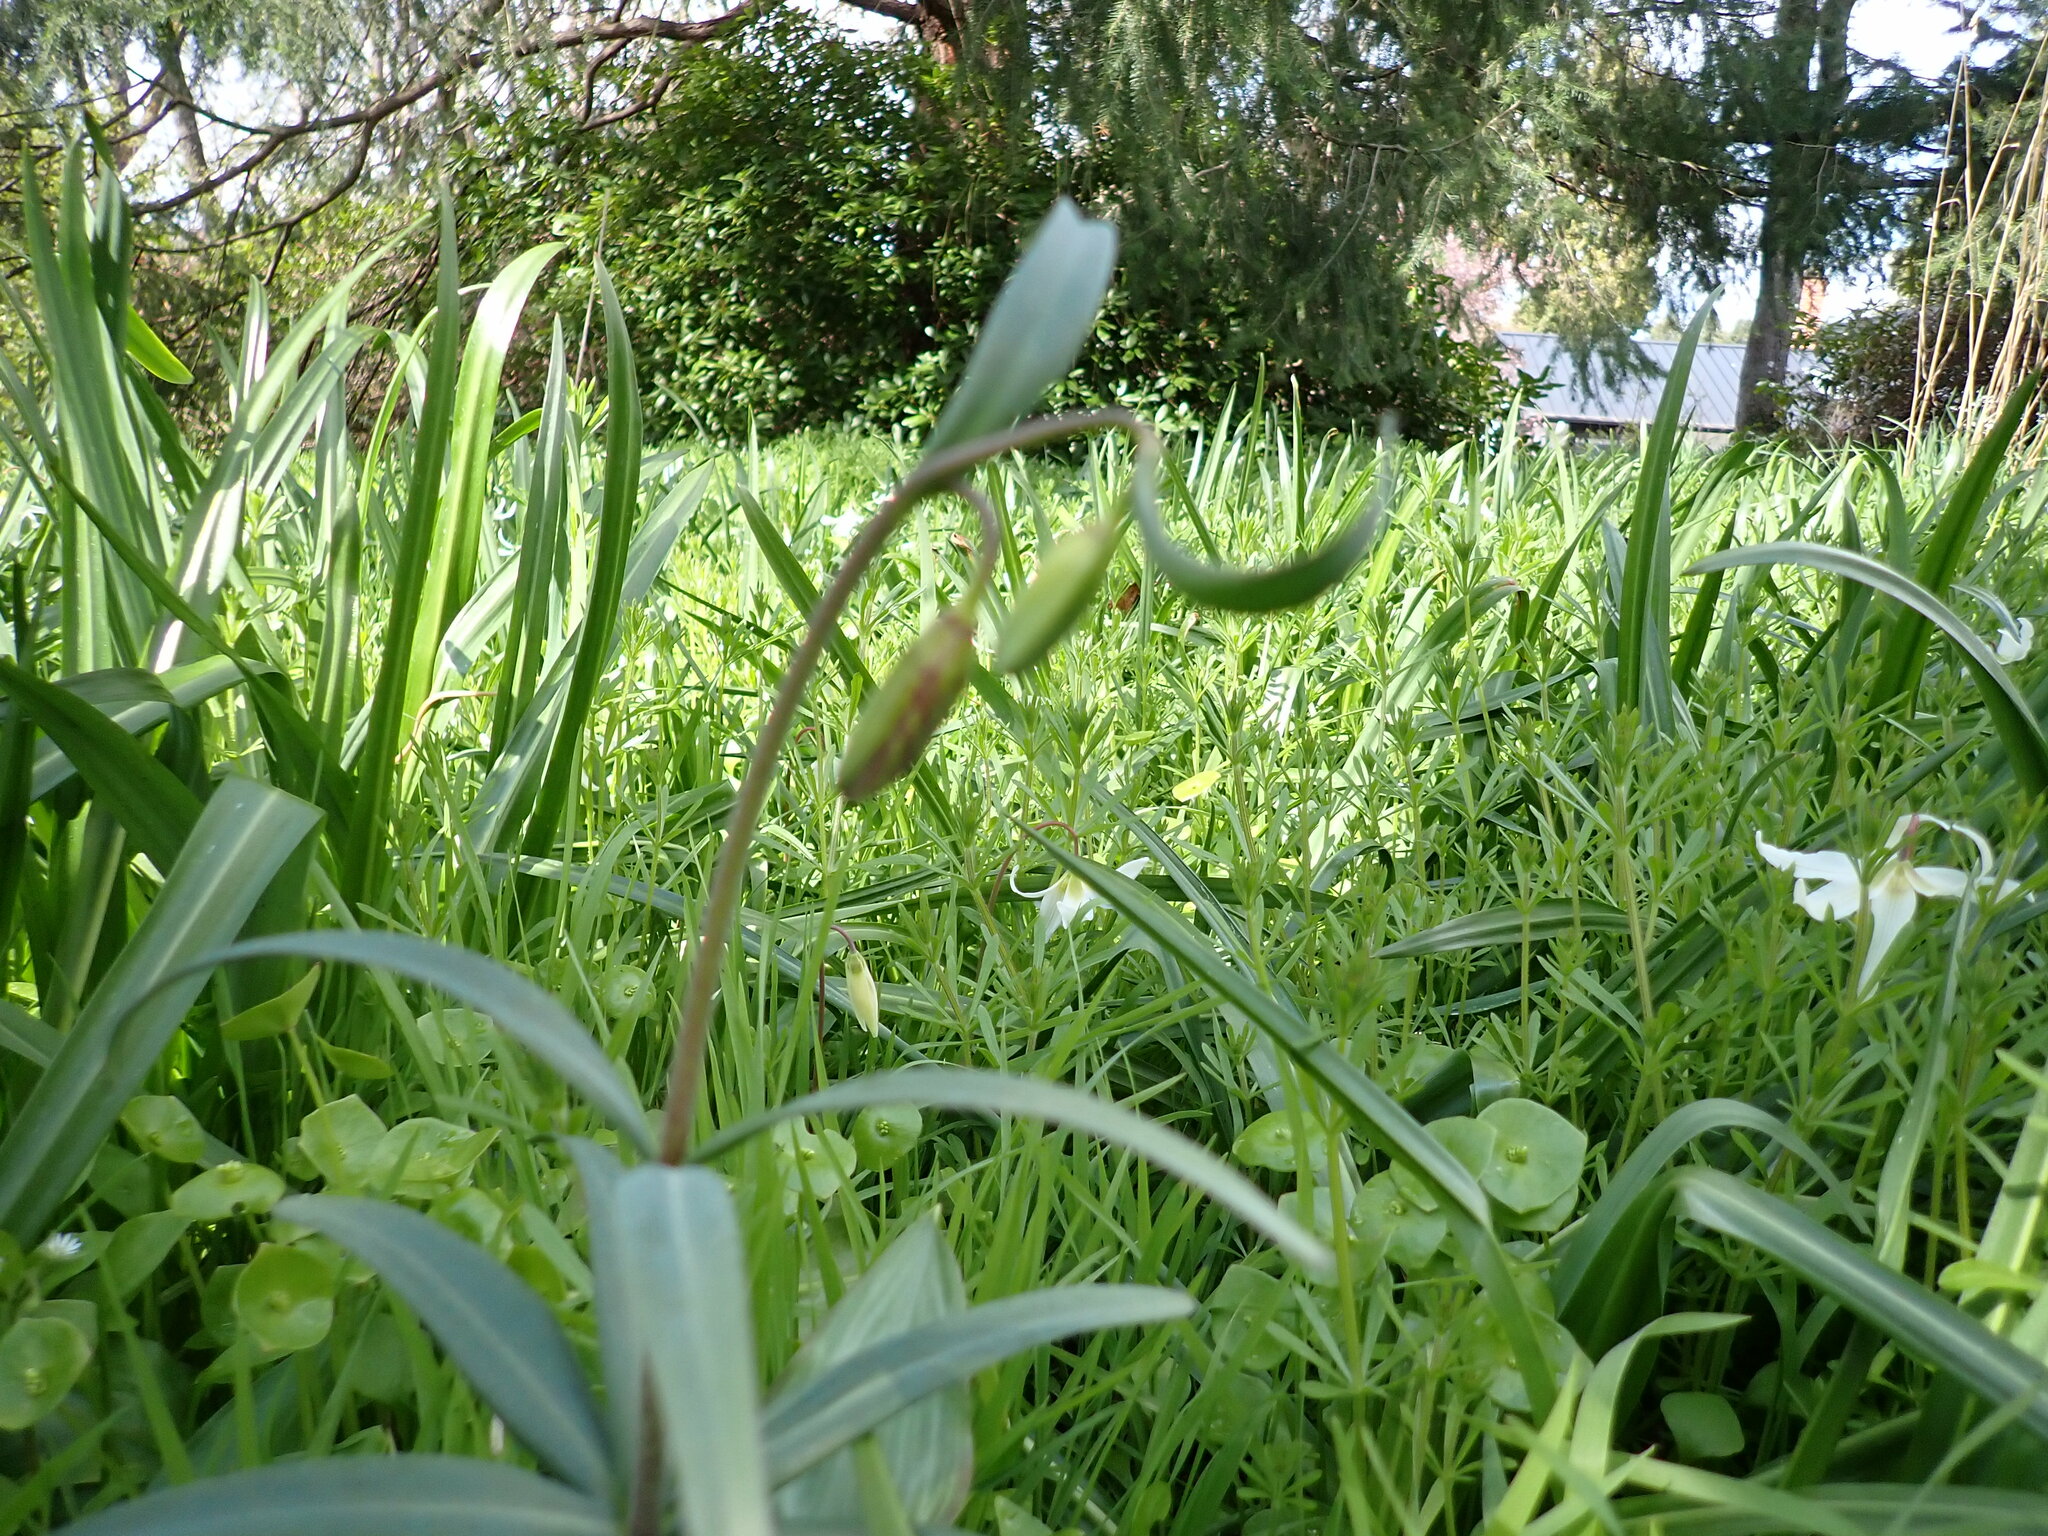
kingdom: Plantae
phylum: Tracheophyta
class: Liliopsida
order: Liliales
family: Liliaceae
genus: Fritillaria
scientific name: Fritillaria affinis
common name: Ojai fritillary
